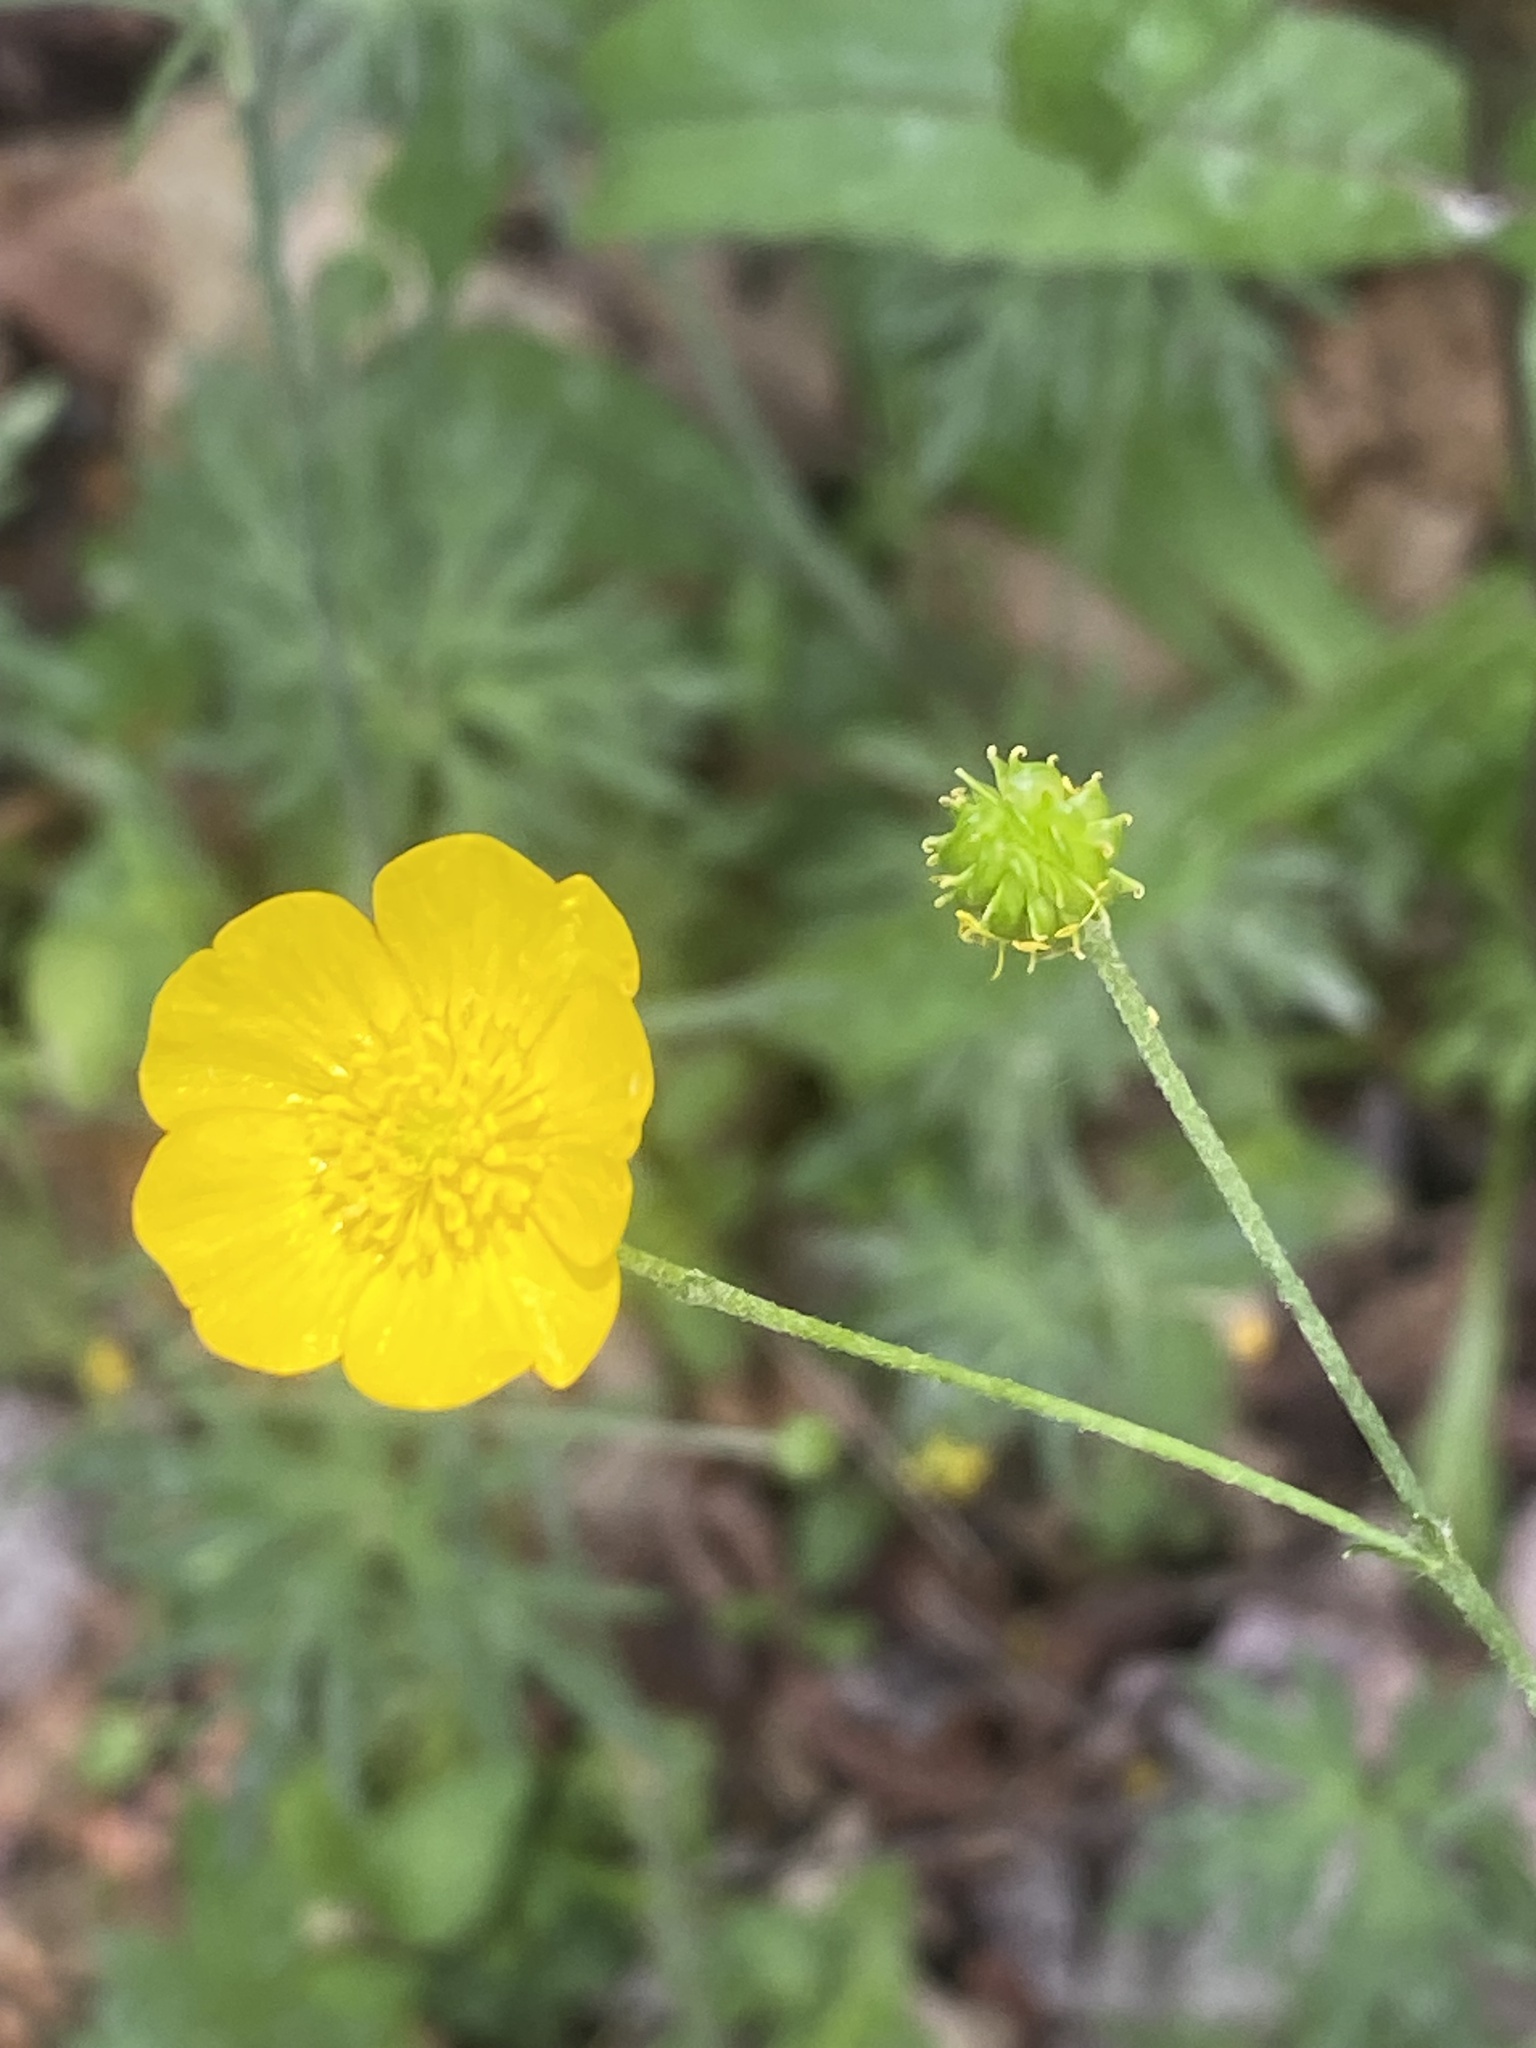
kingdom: Plantae
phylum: Tracheophyta
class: Magnoliopsida
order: Ranunculales
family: Ranunculaceae
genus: Ranunculus
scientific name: Ranunculus acris
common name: Meadow buttercup
